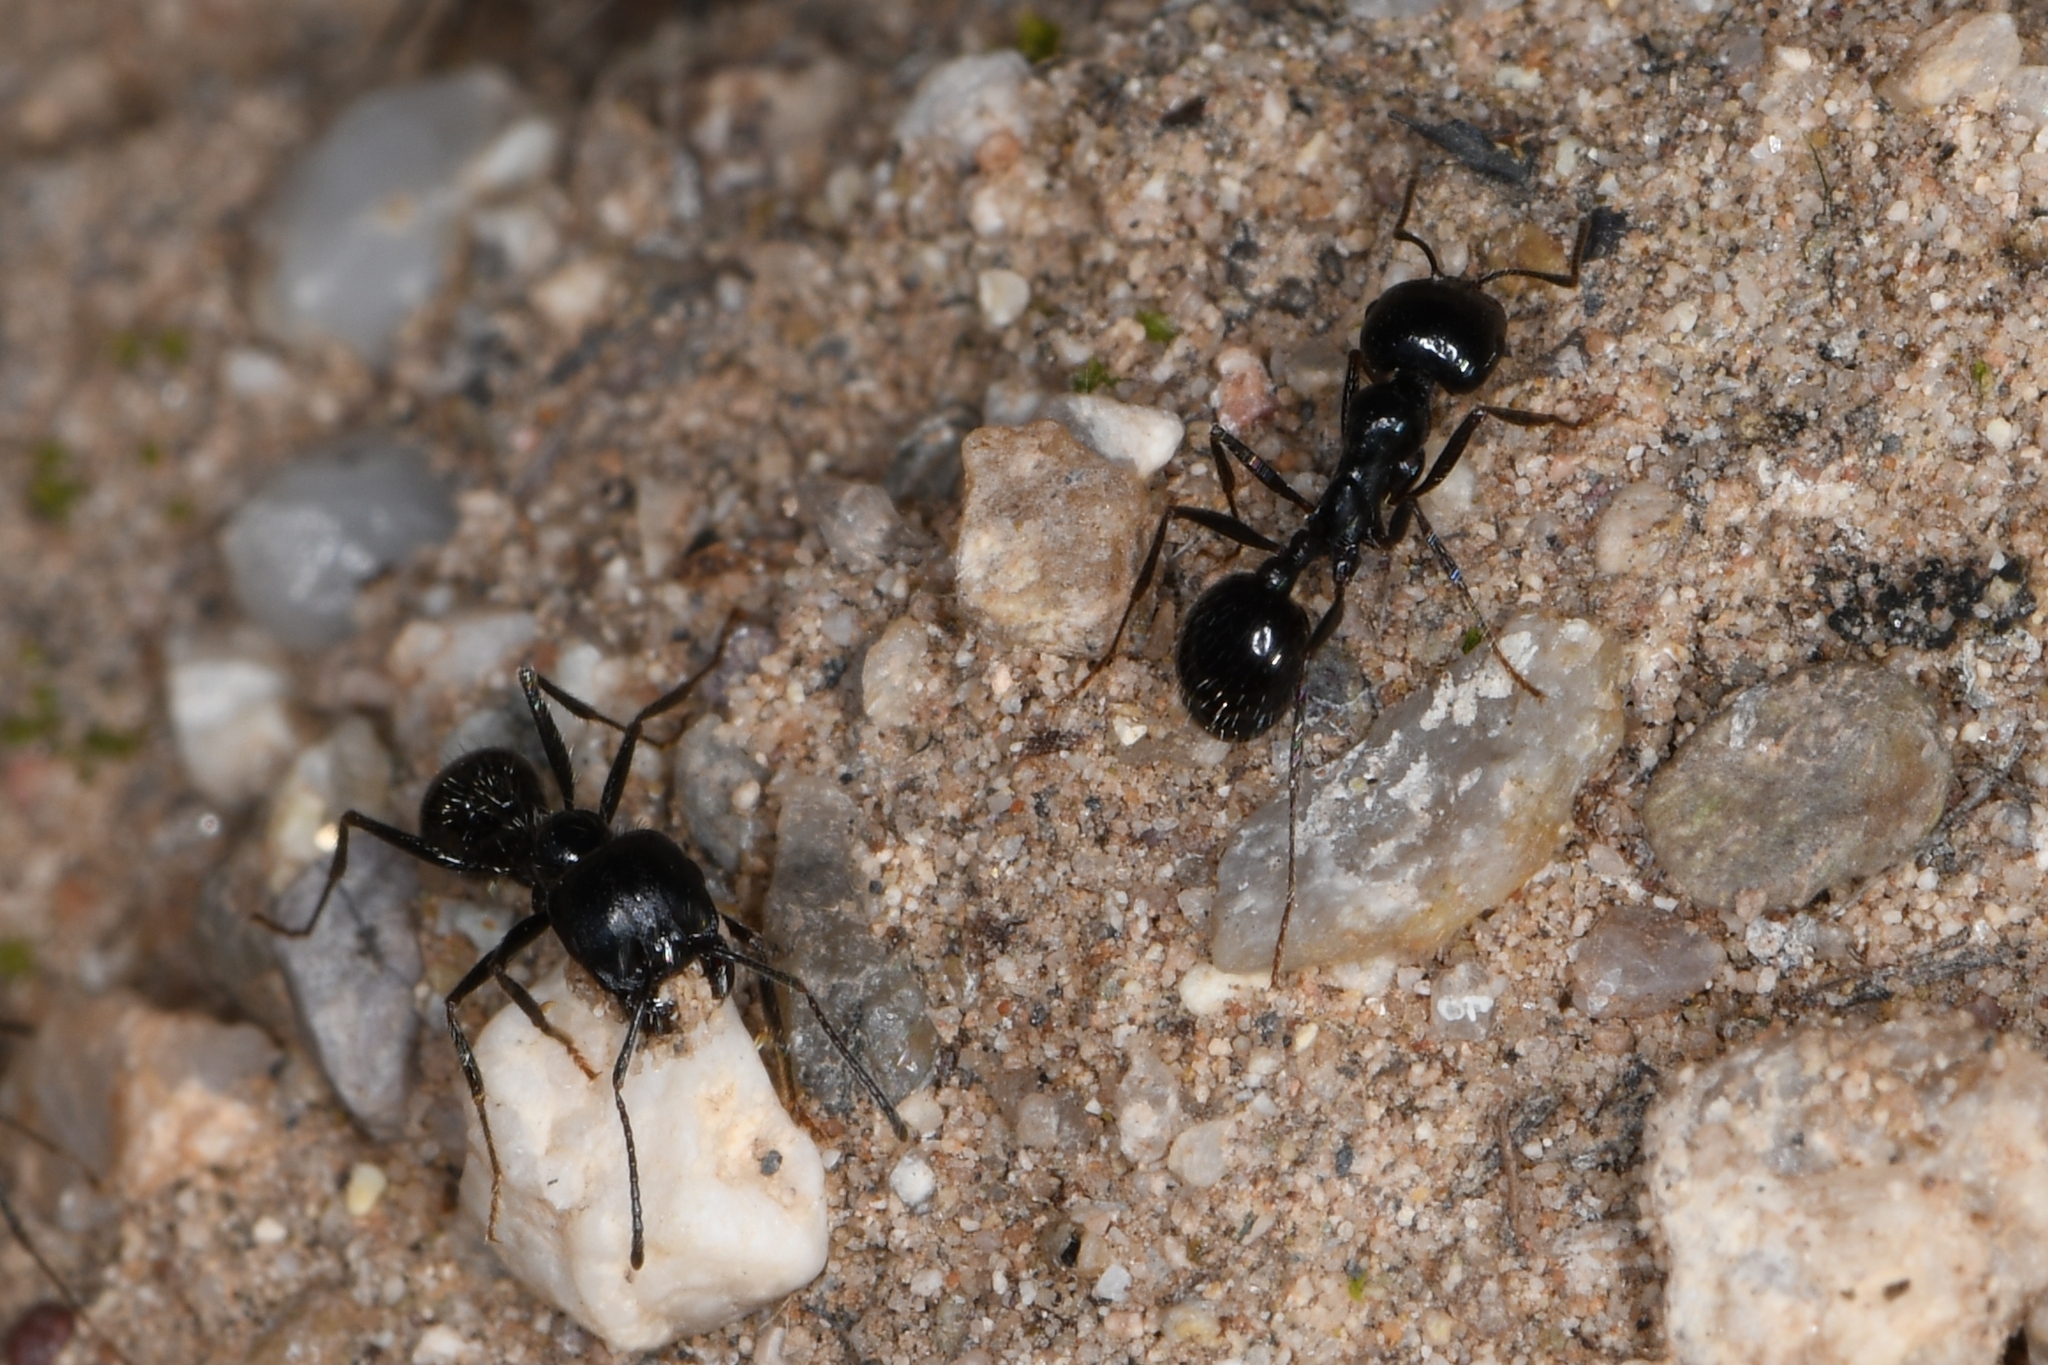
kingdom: Animalia
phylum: Arthropoda
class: Insecta
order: Hymenoptera
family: Formicidae
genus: Messor
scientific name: Messor pergandei
